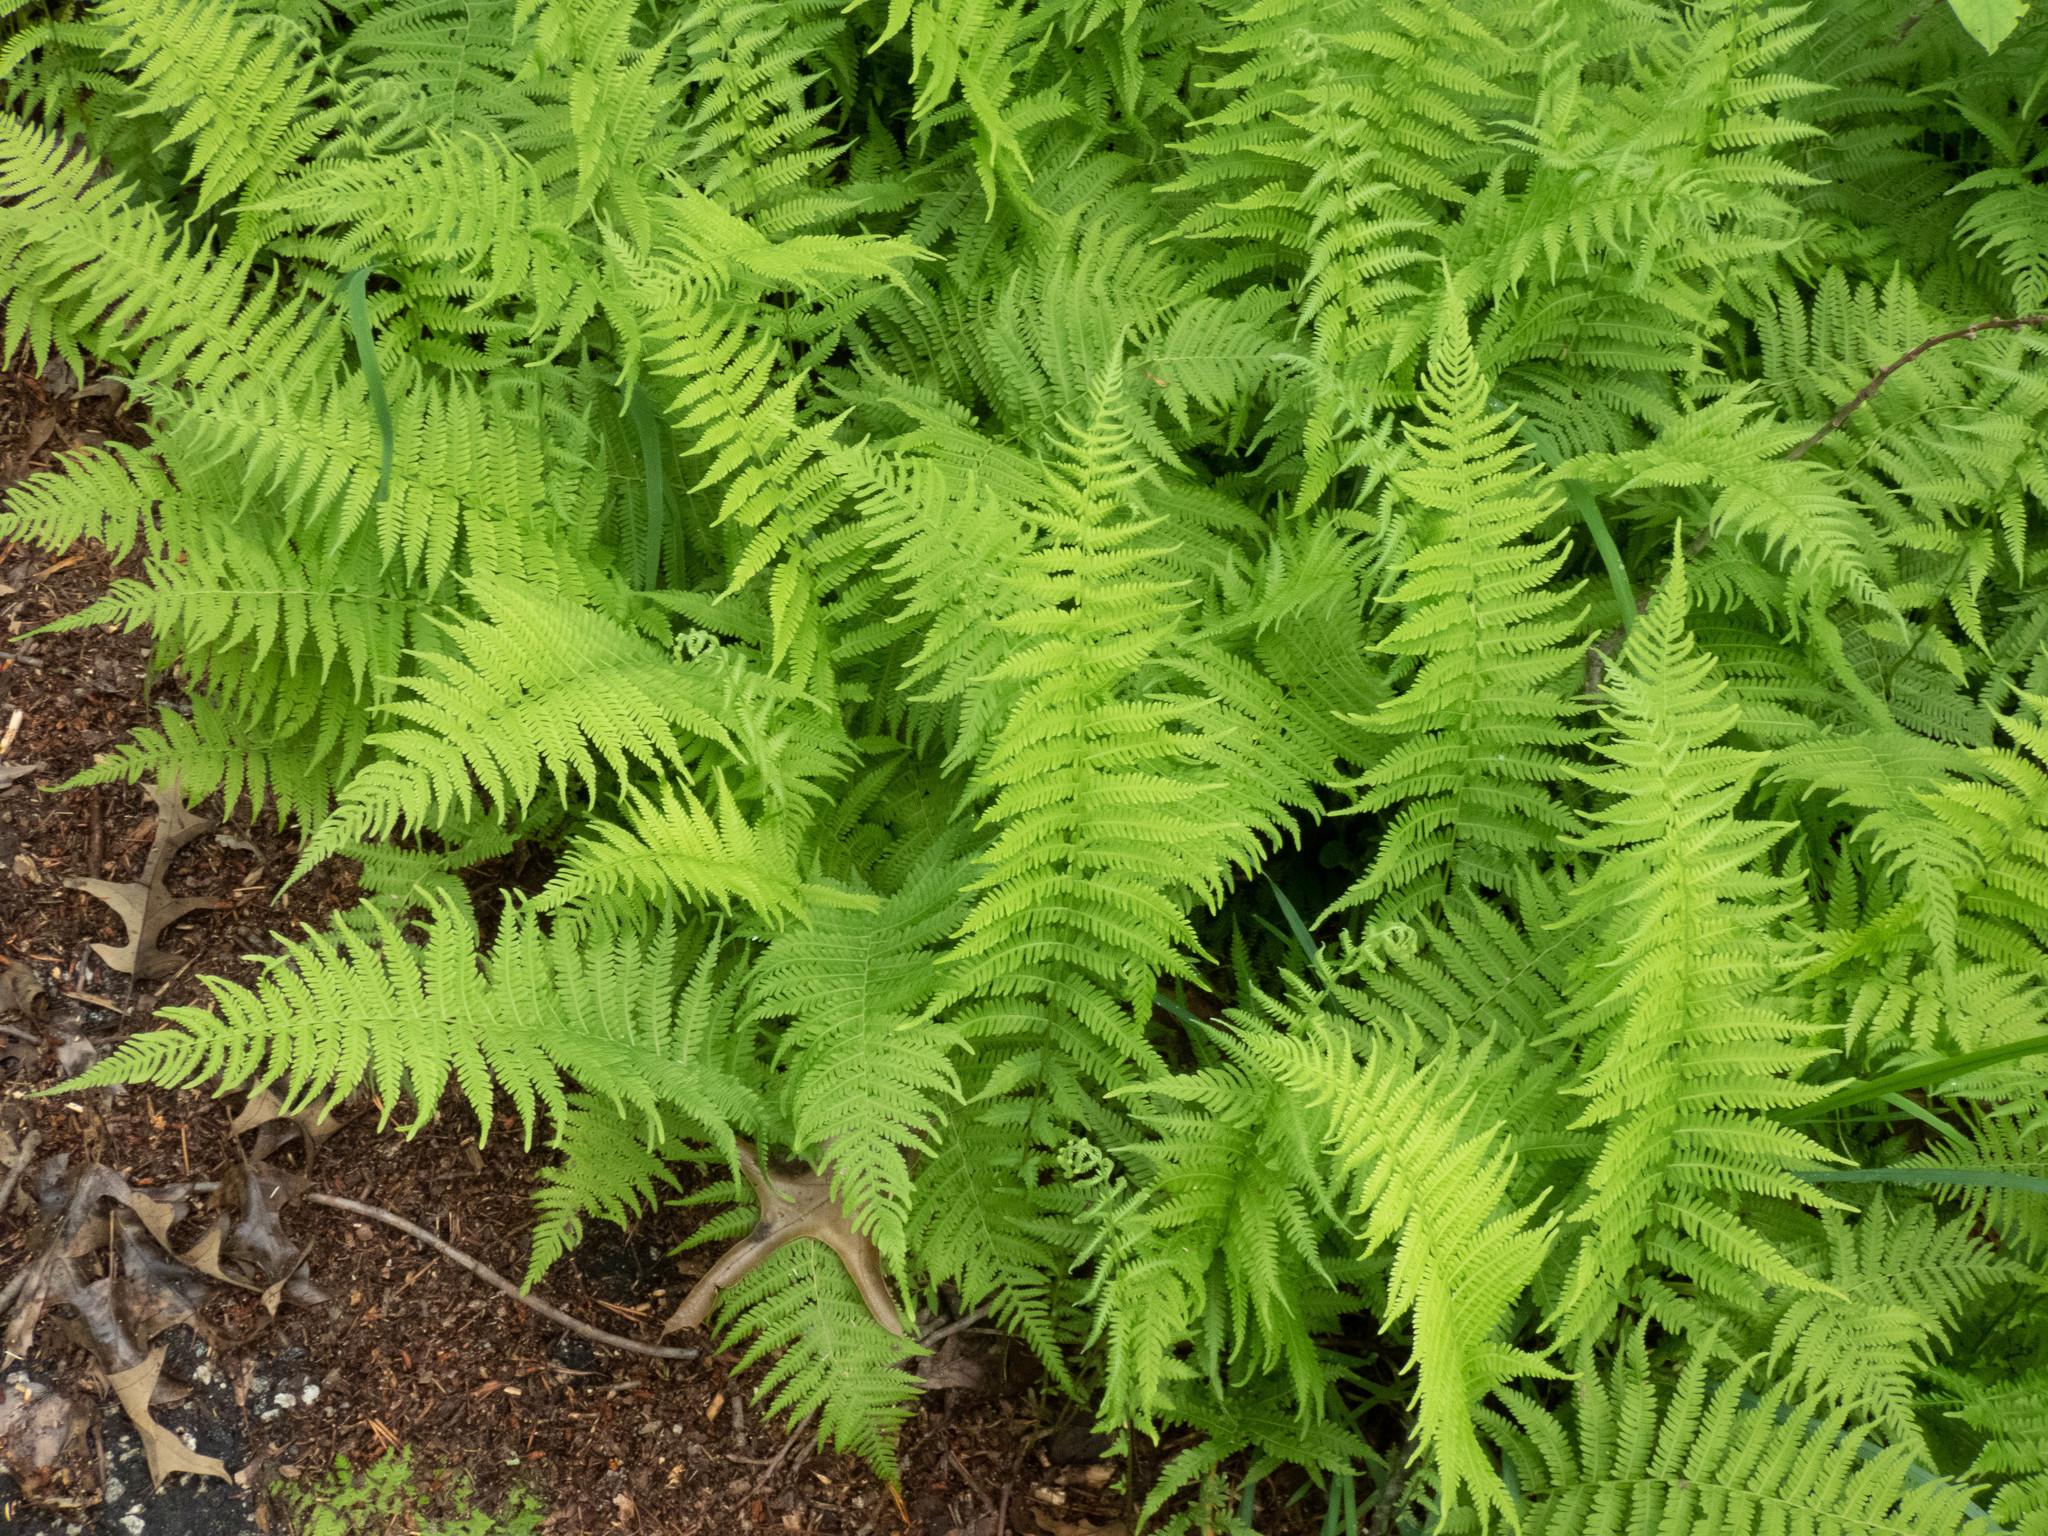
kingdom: Plantae
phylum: Tracheophyta
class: Polypodiopsida
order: Polypodiales
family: Thelypteridaceae
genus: Amauropelta
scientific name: Amauropelta noveboracensis
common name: New york fern
